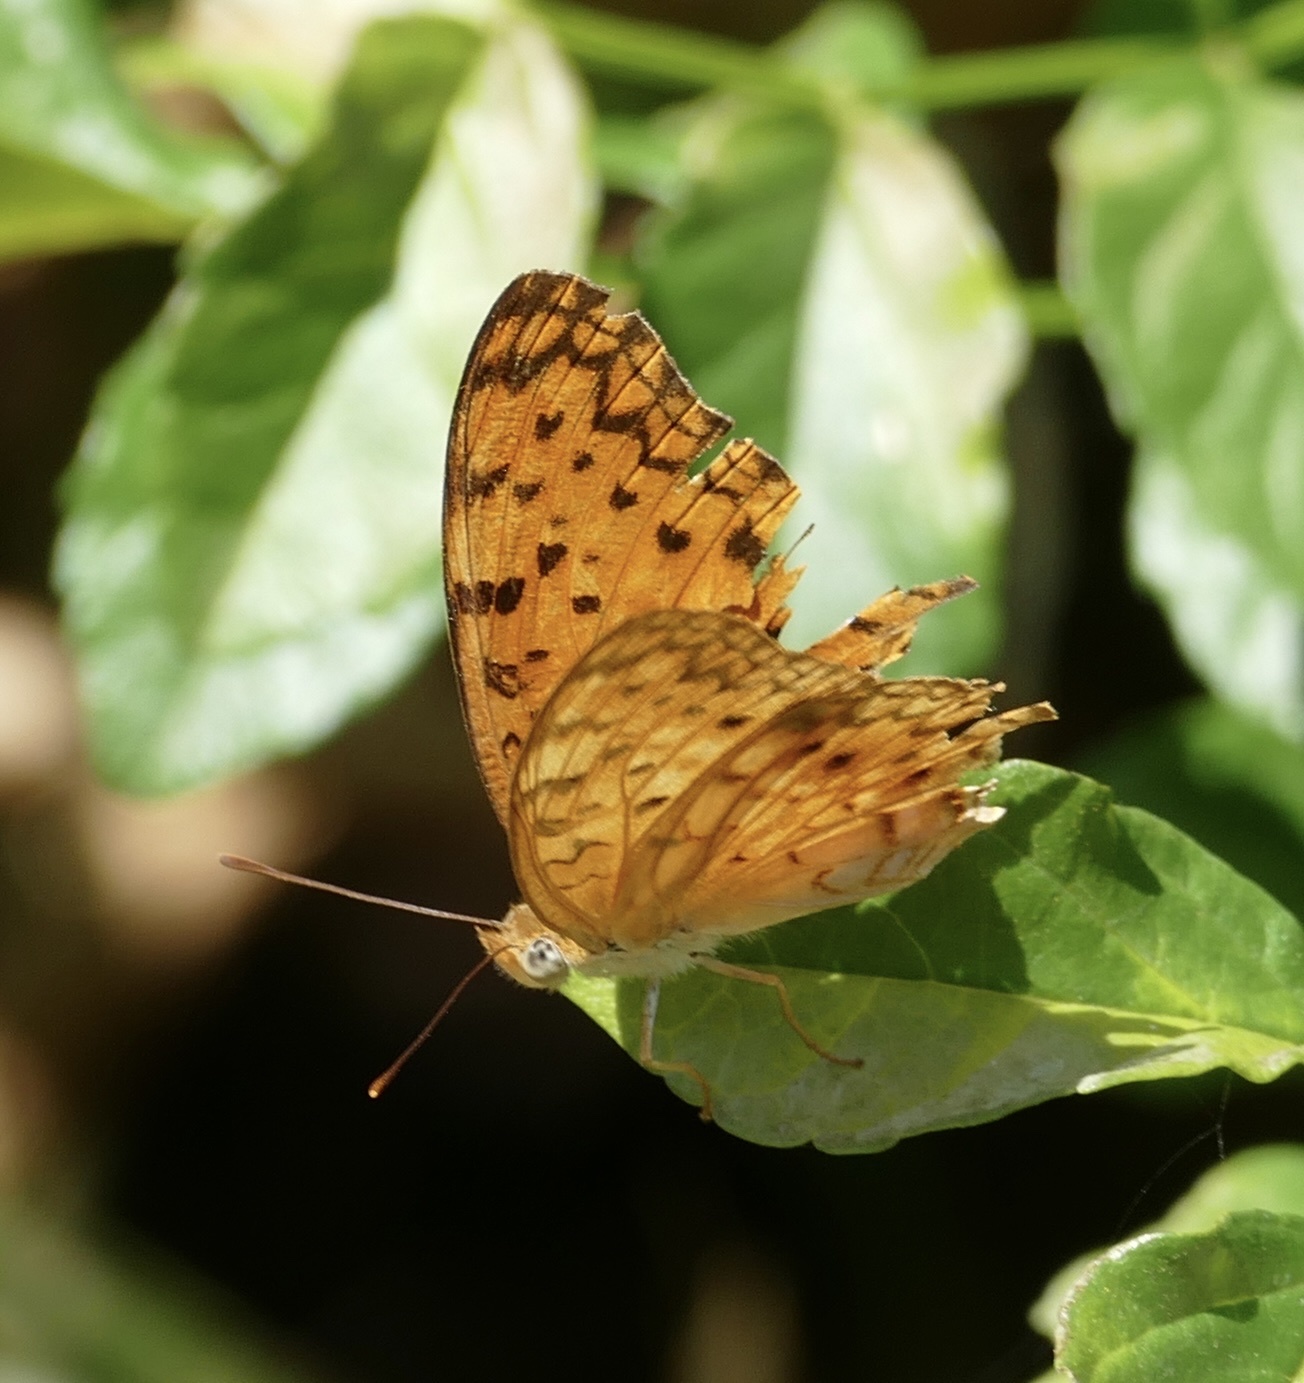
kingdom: Animalia
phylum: Arthropoda
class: Insecta
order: Lepidoptera
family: Nymphalidae
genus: Phalanta
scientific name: Phalanta phalantha
